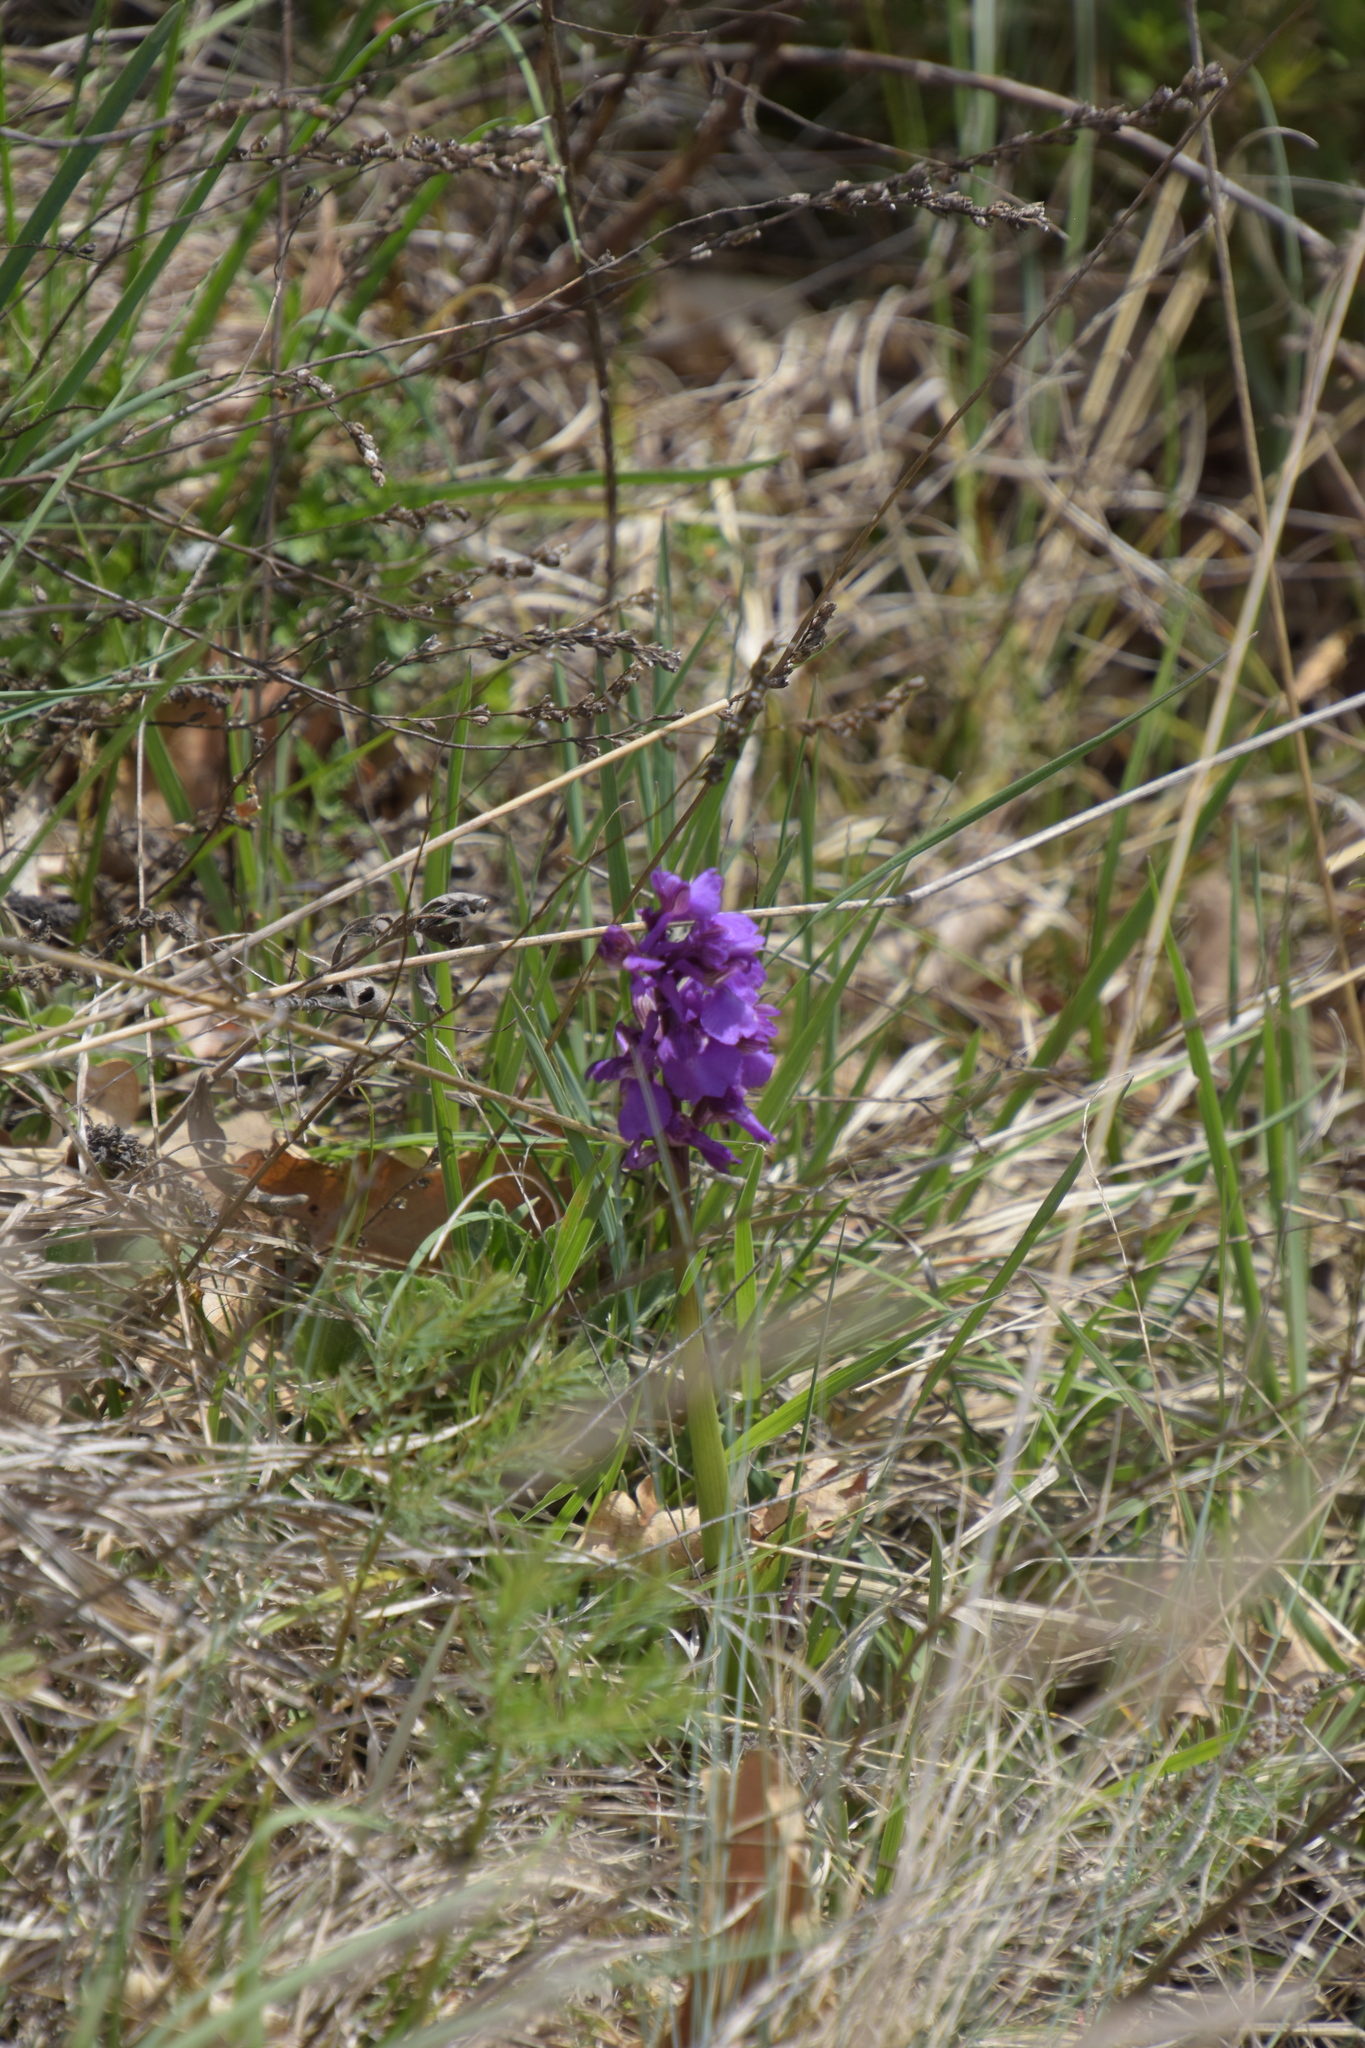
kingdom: Plantae
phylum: Tracheophyta
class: Liliopsida
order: Asparagales
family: Orchidaceae
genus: Anacamptis
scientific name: Anacamptis morio
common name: Green-winged orchid
